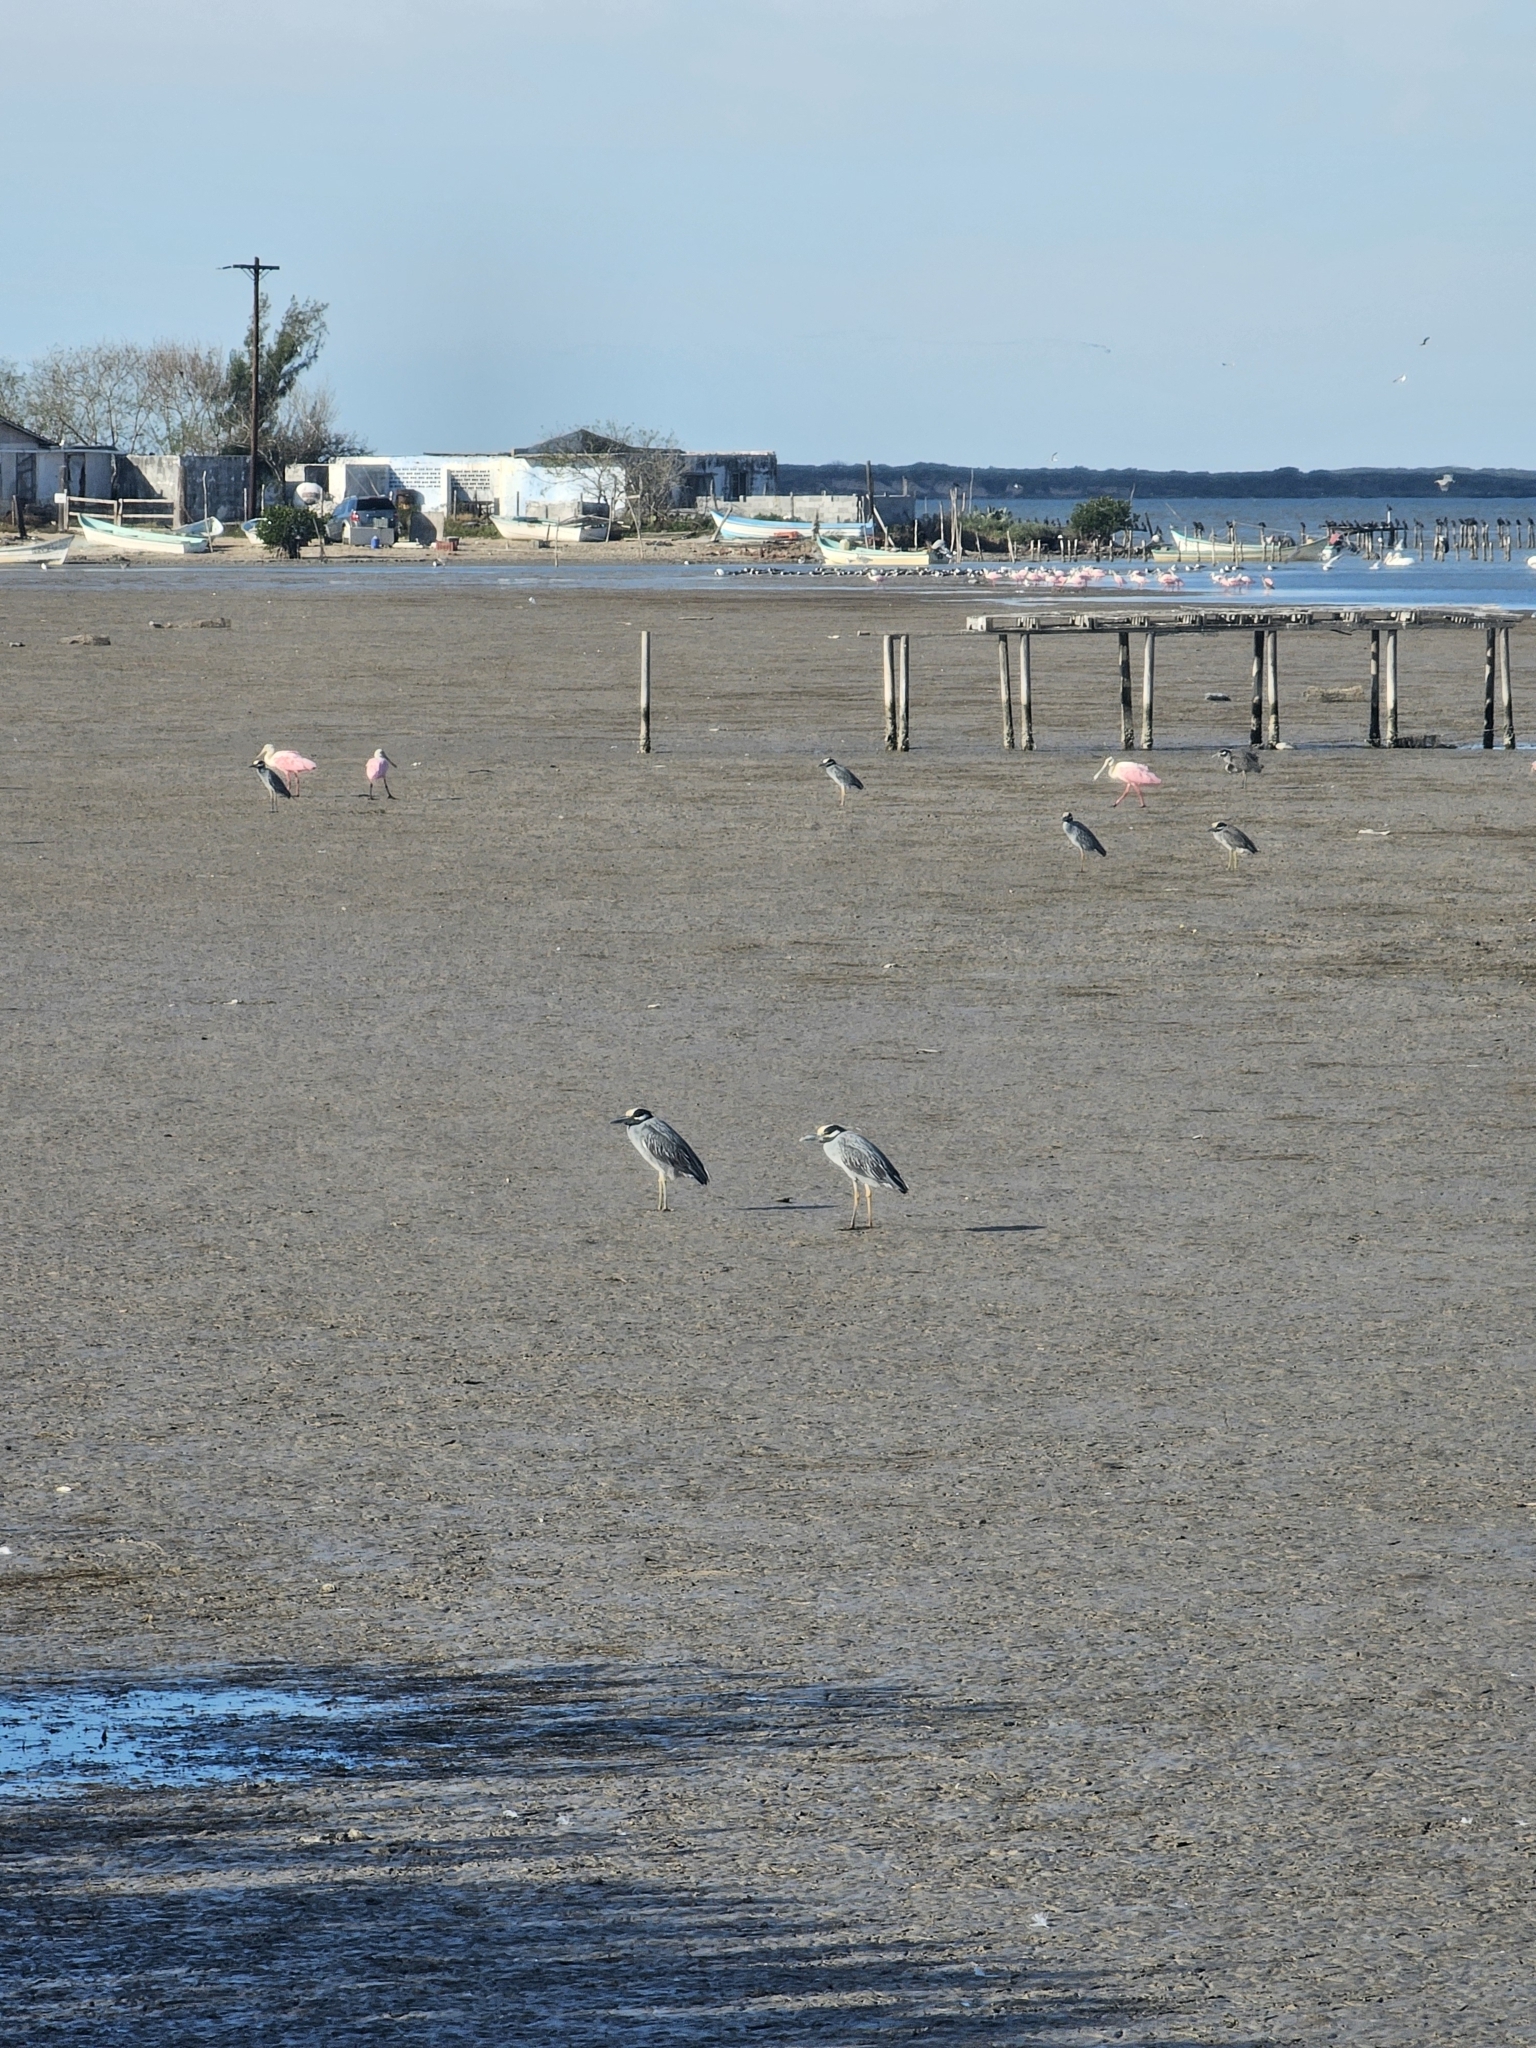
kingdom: Animalia
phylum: Chordata
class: Aves
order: Pelecaniformes
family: Ardeidae
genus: Nyctanassa
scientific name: Nyctanassa violacea
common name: Yellow-crowned night heron
